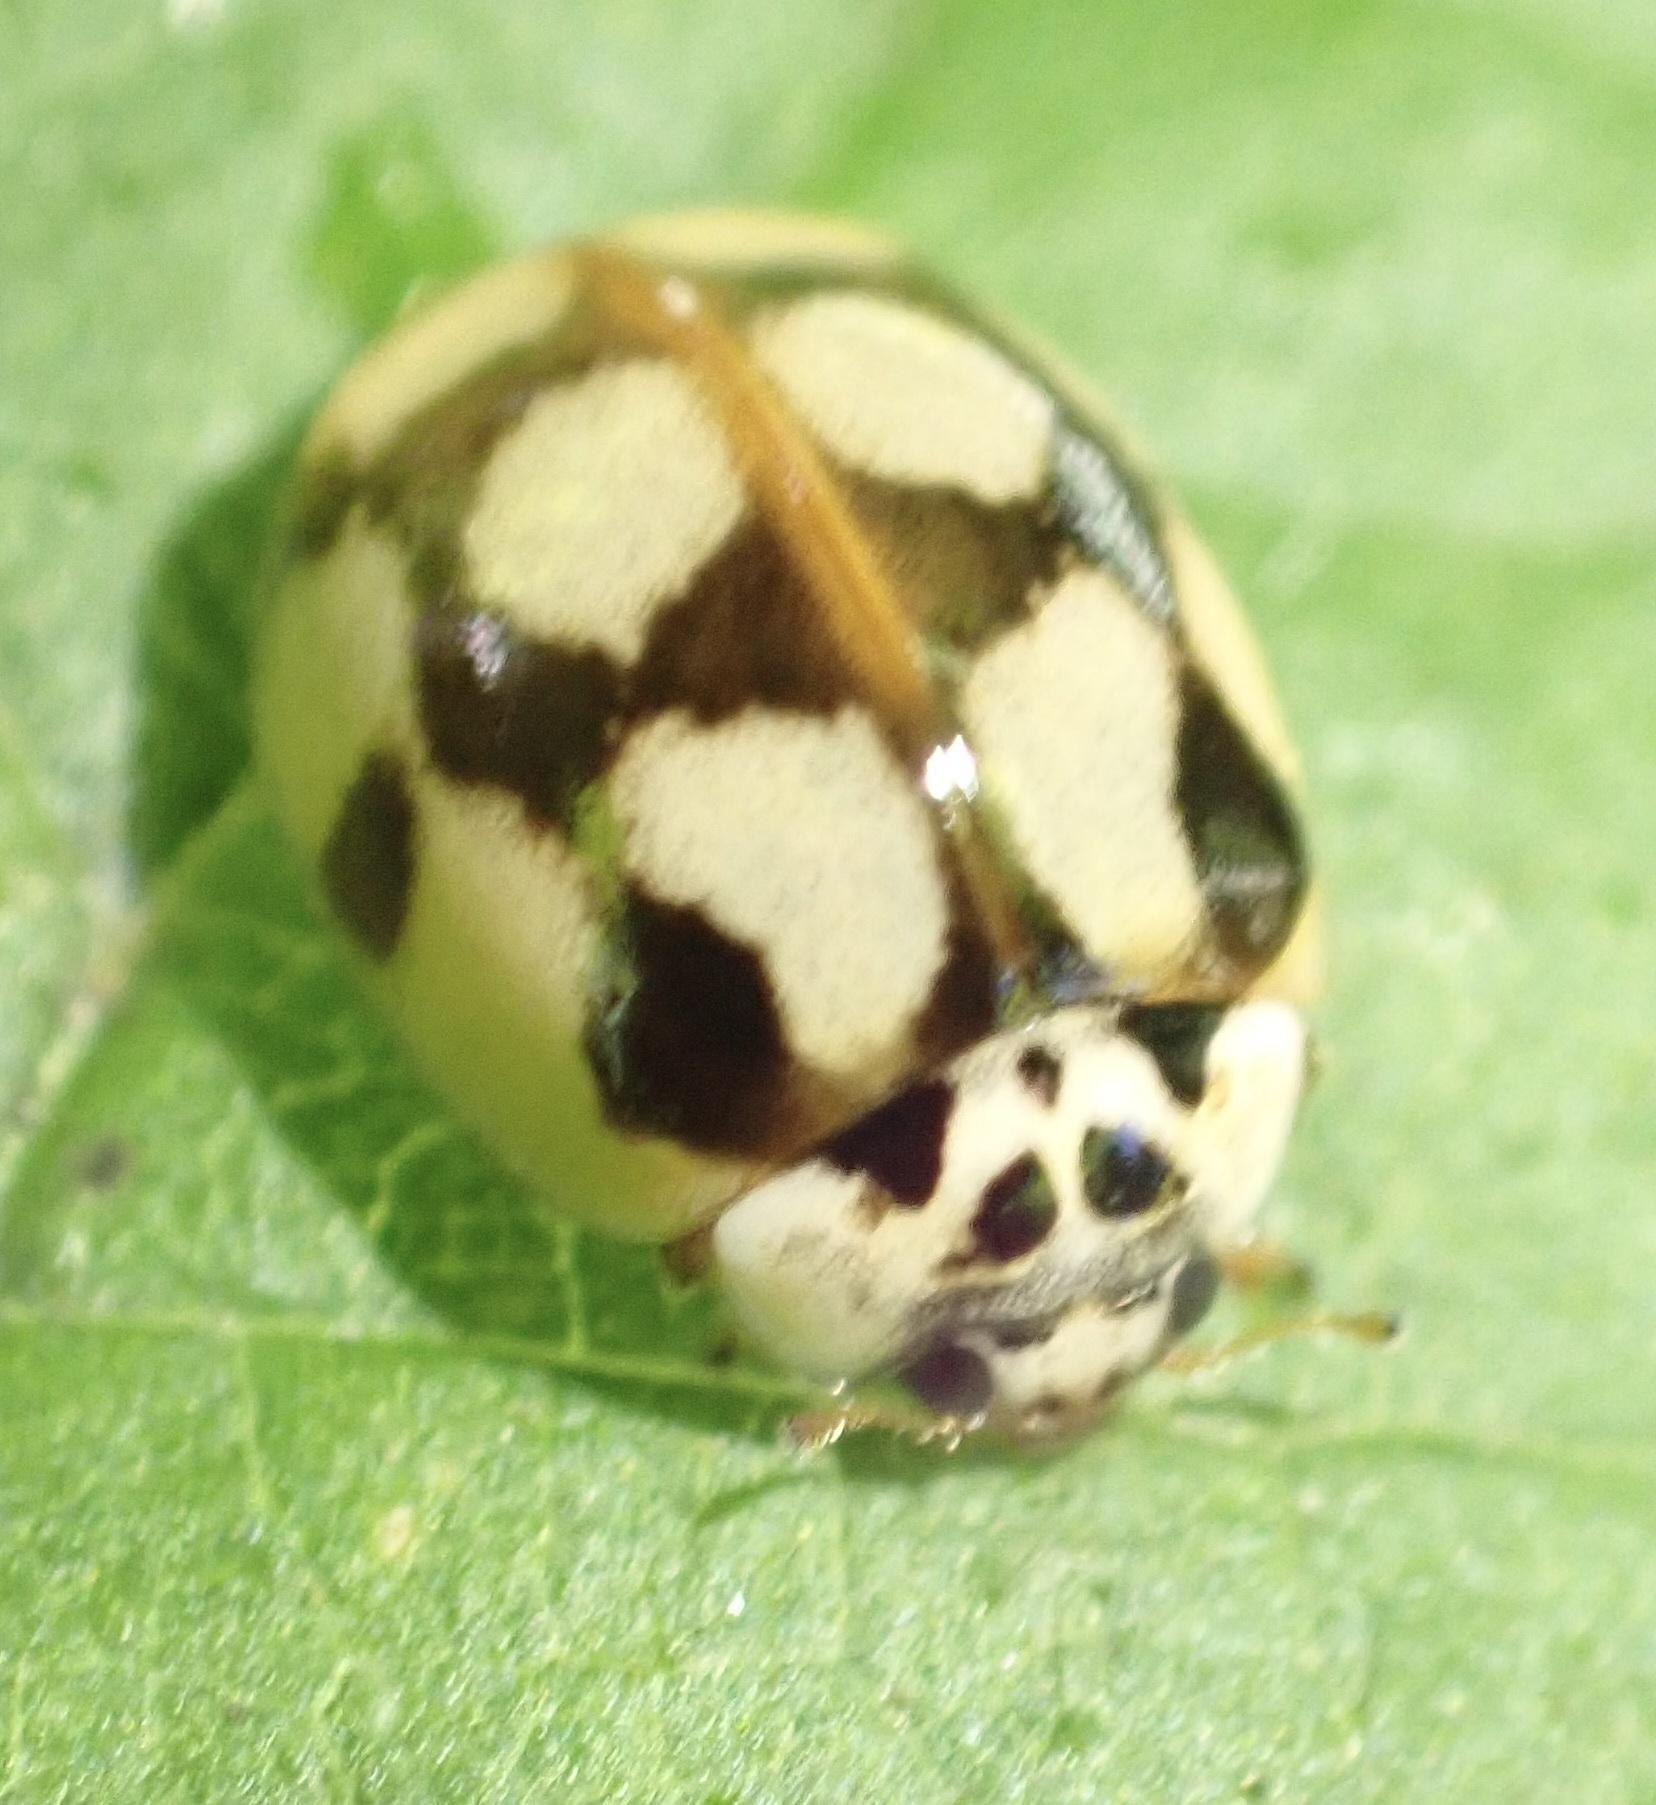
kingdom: Animalia
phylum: Arthropoda
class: Insecta
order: Coleoptera
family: Coccinellidae
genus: Adalia
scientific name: Adalia decempunctata
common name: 10-spot ladybird
